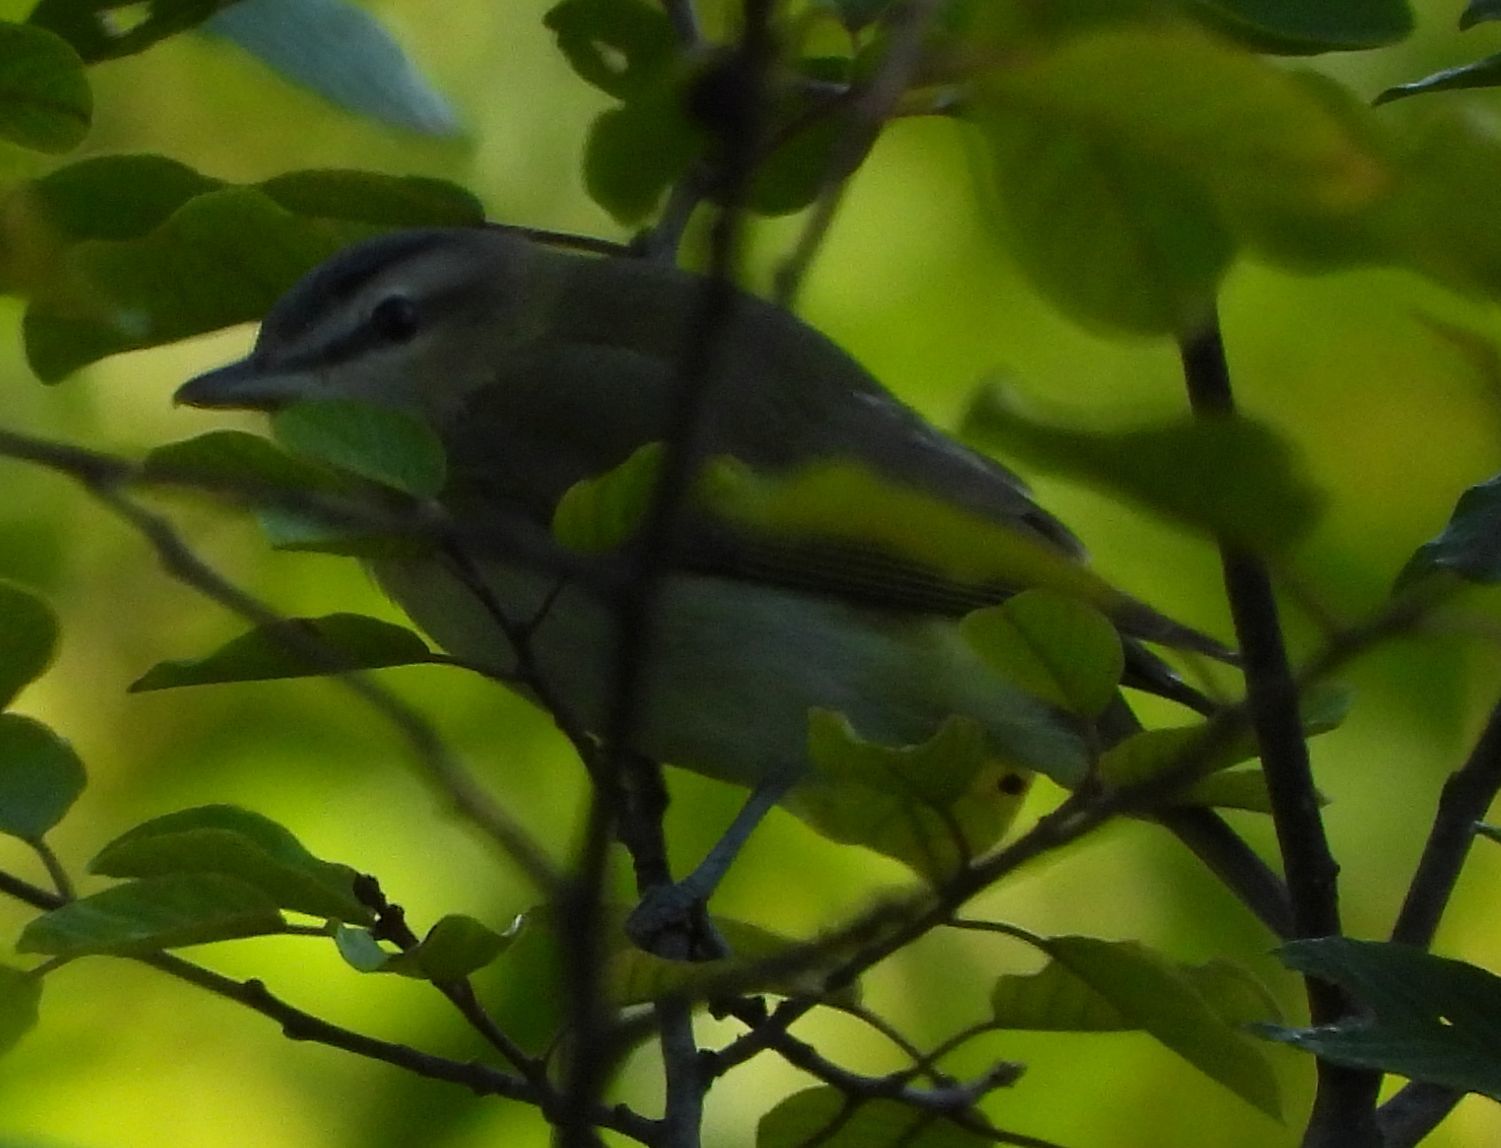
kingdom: Animalia
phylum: Chordata
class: Aves
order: Passeriformes
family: Vireonidae
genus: Vireo
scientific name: Vireo olivaceus
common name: Red-eyed vireo
